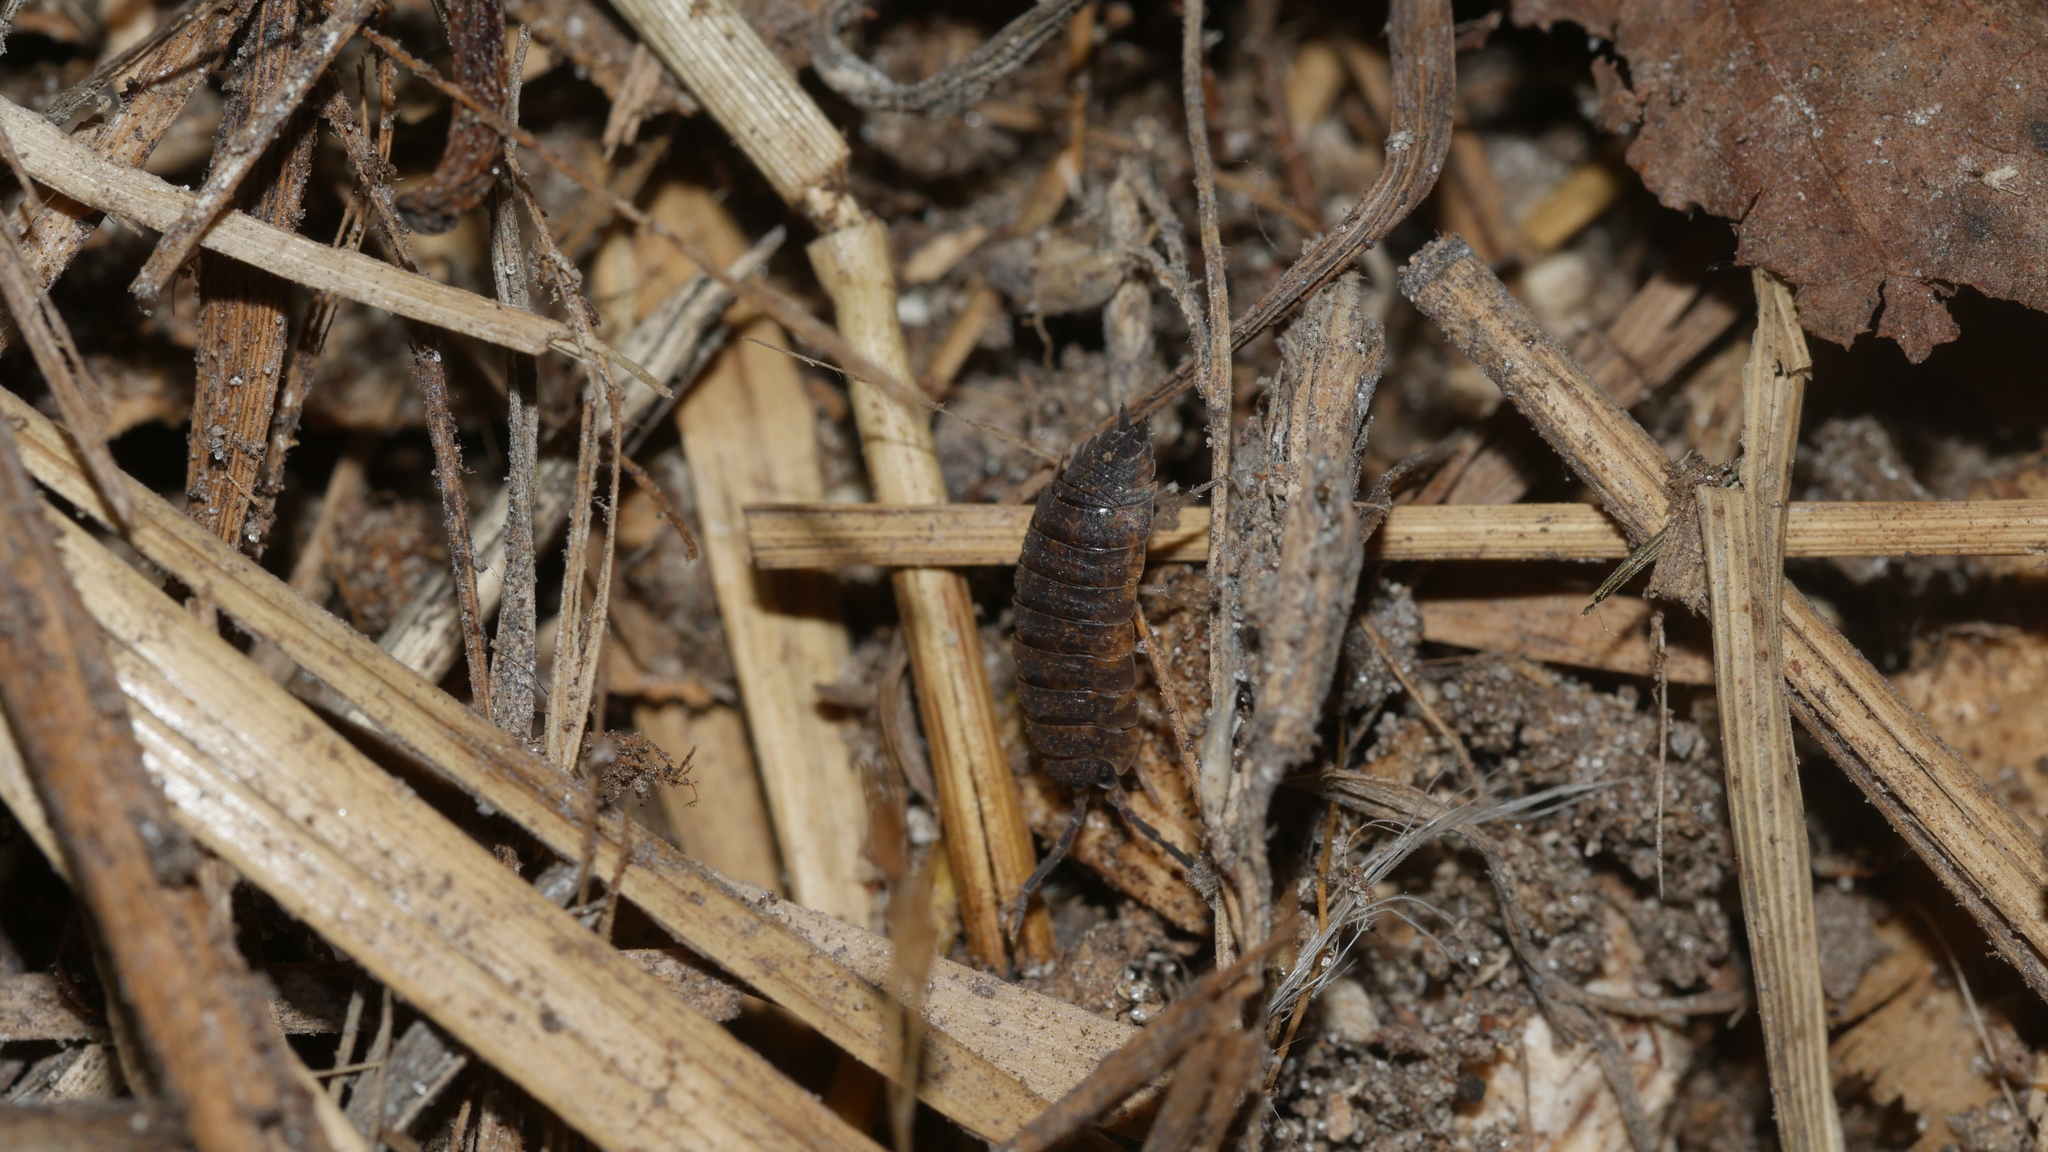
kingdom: Animalia
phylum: Arthropoda
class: Malacostraca
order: Isopoda
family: Porcellionidae
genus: Porcellio
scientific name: Porcellio scaber
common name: Common rough woodlouse
